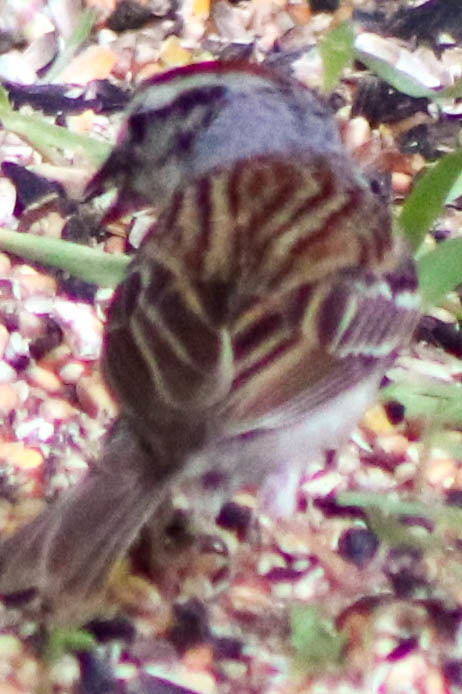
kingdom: Animalia
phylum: Chordata
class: Aves
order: Passeriformes
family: Passerellidae
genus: Spizella
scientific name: Spizella passerina
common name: Chipping sparrow
